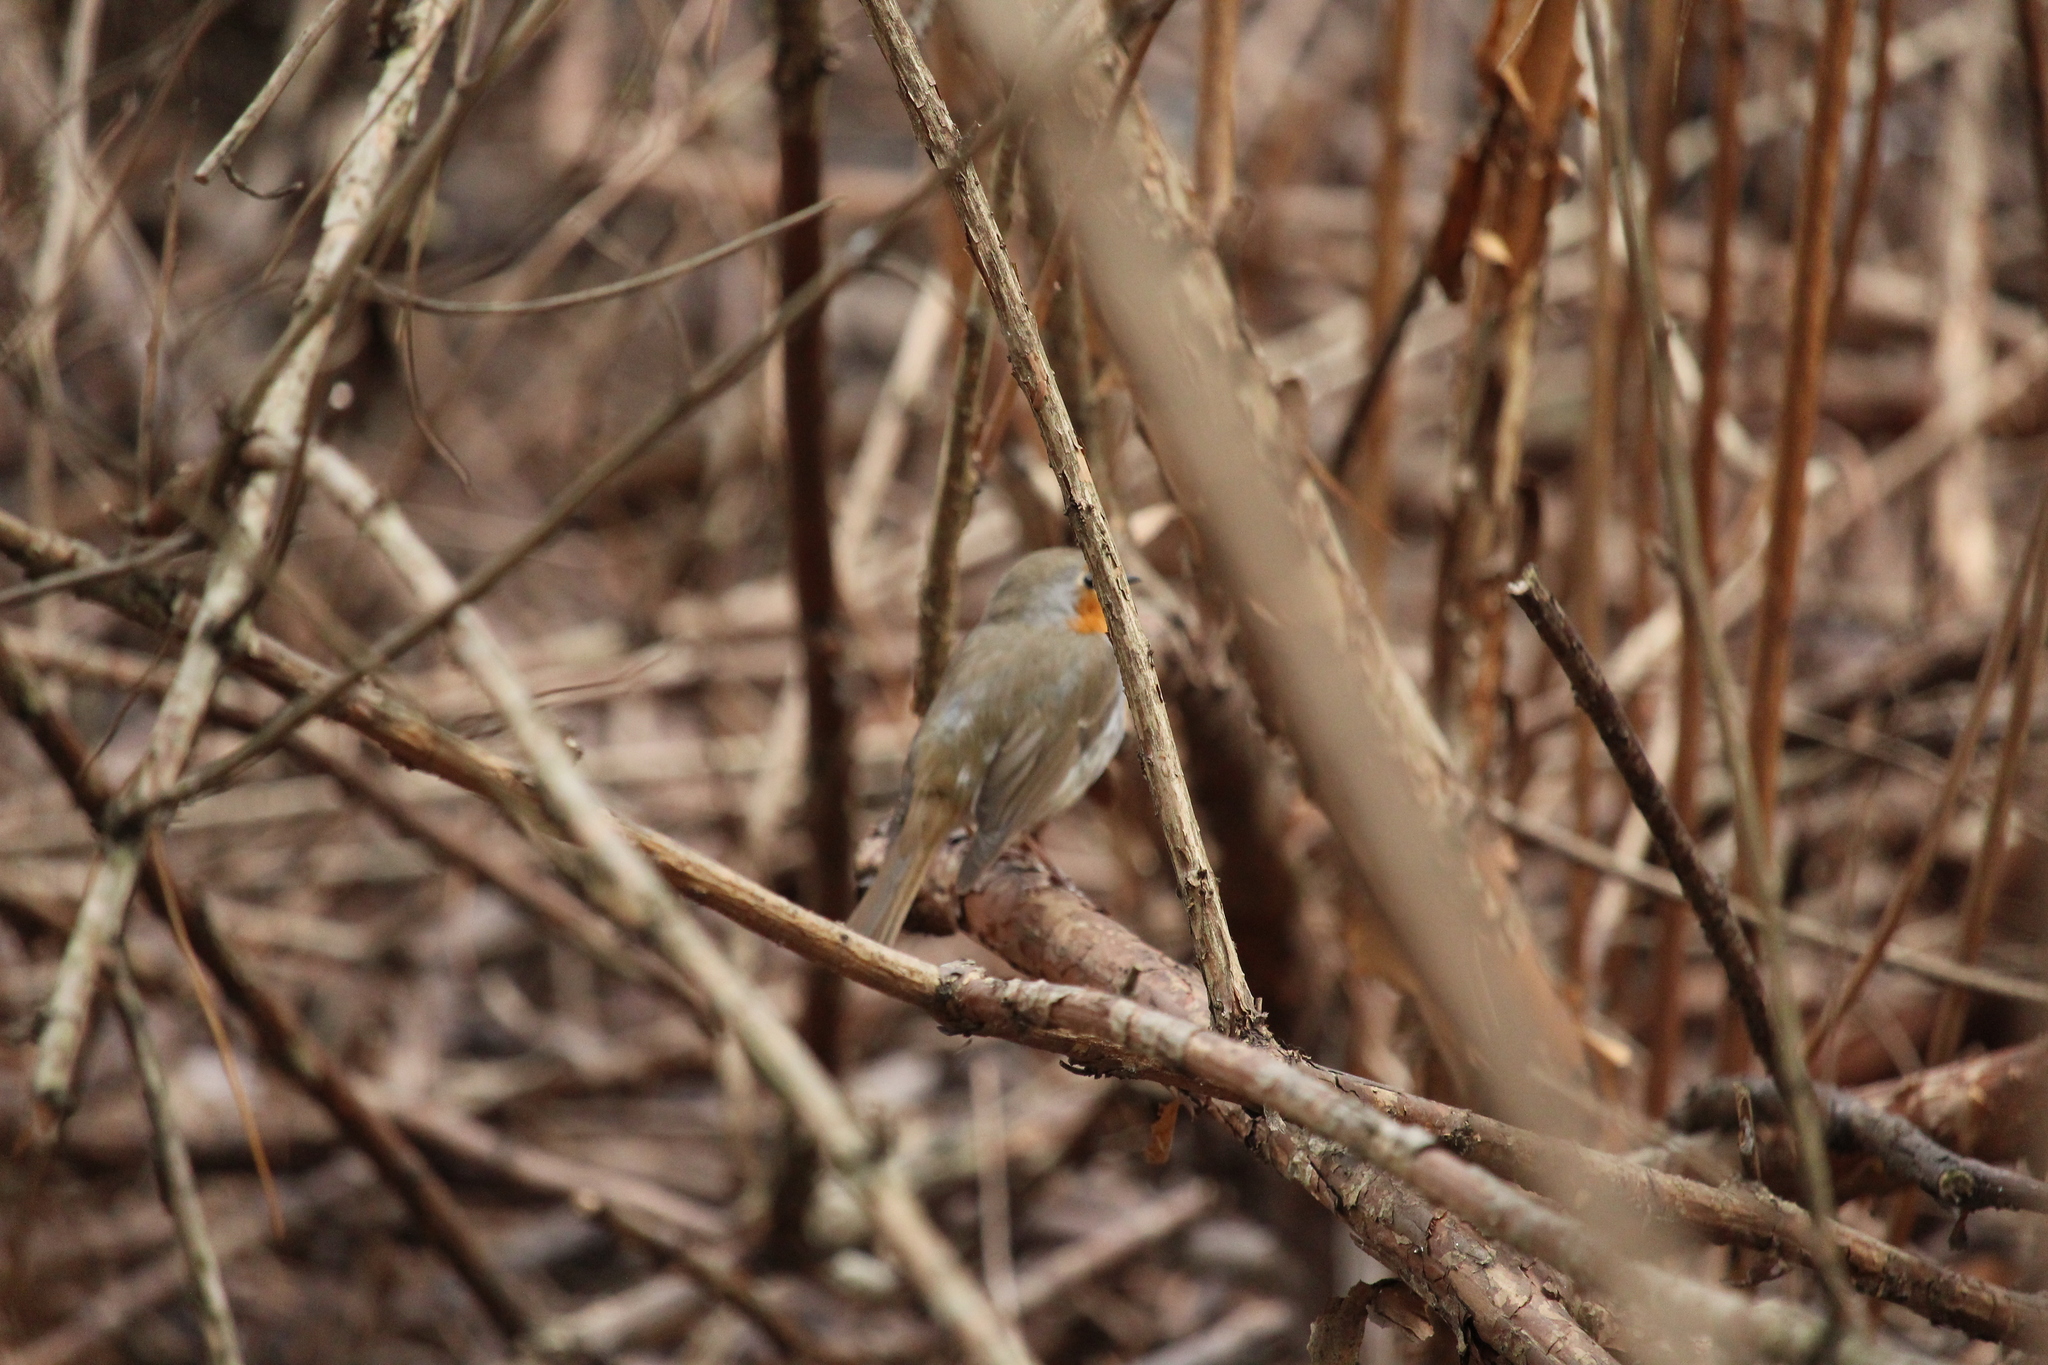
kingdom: Animalia
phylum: Chordata
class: Aves
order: Passeriformes
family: Muscicapidae
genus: Erithacus
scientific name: Erithacus rubecula
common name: European robin
